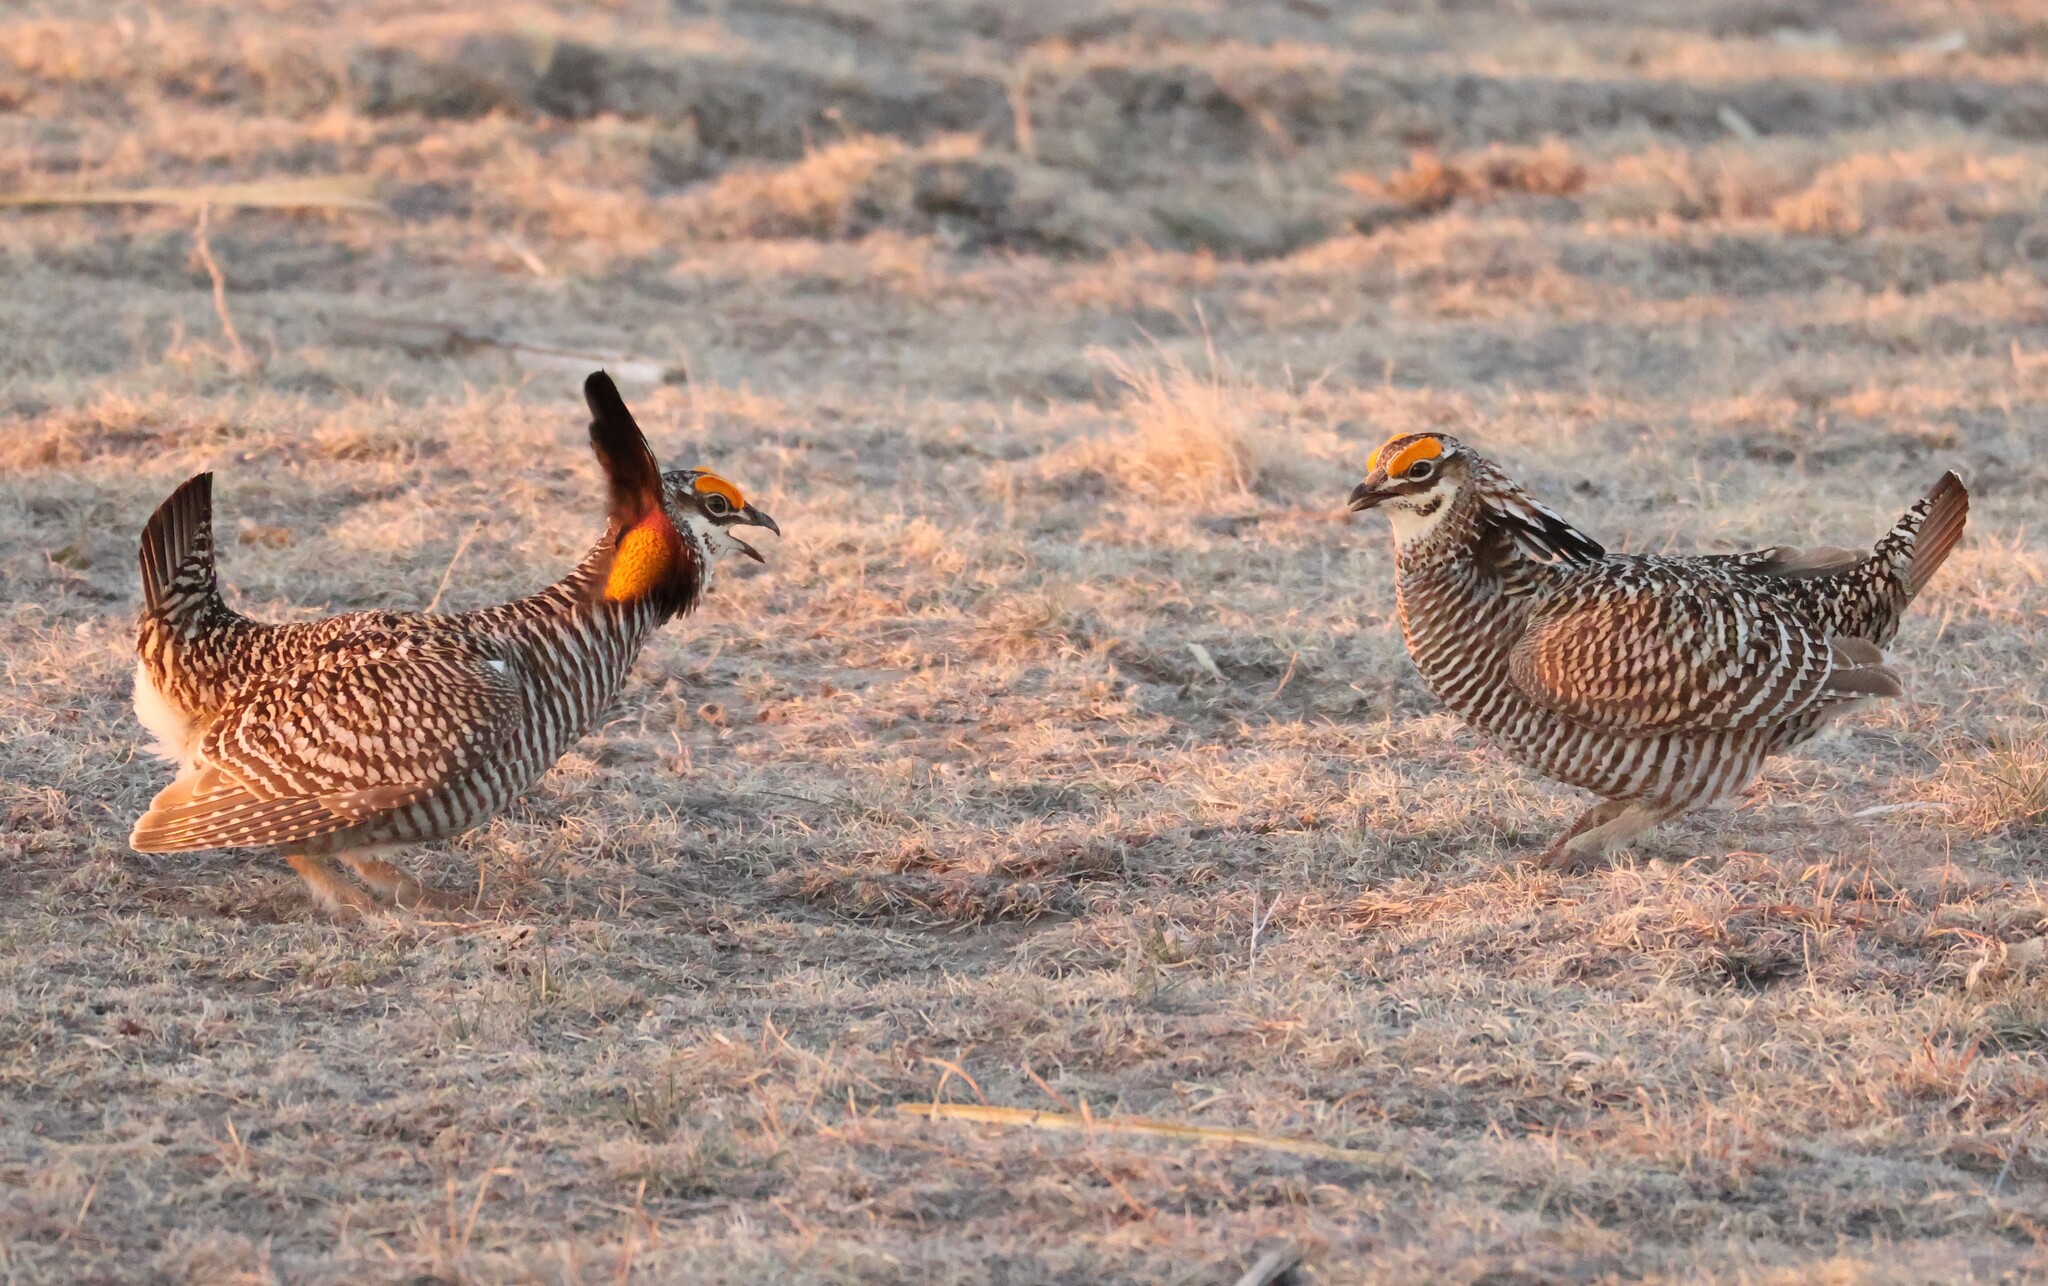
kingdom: Animalia
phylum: Chordata
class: Aves
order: Galliformes
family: Phasianidae
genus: Tympanuchus
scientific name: Tympanuchus cupido
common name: Greater prairie chicken
